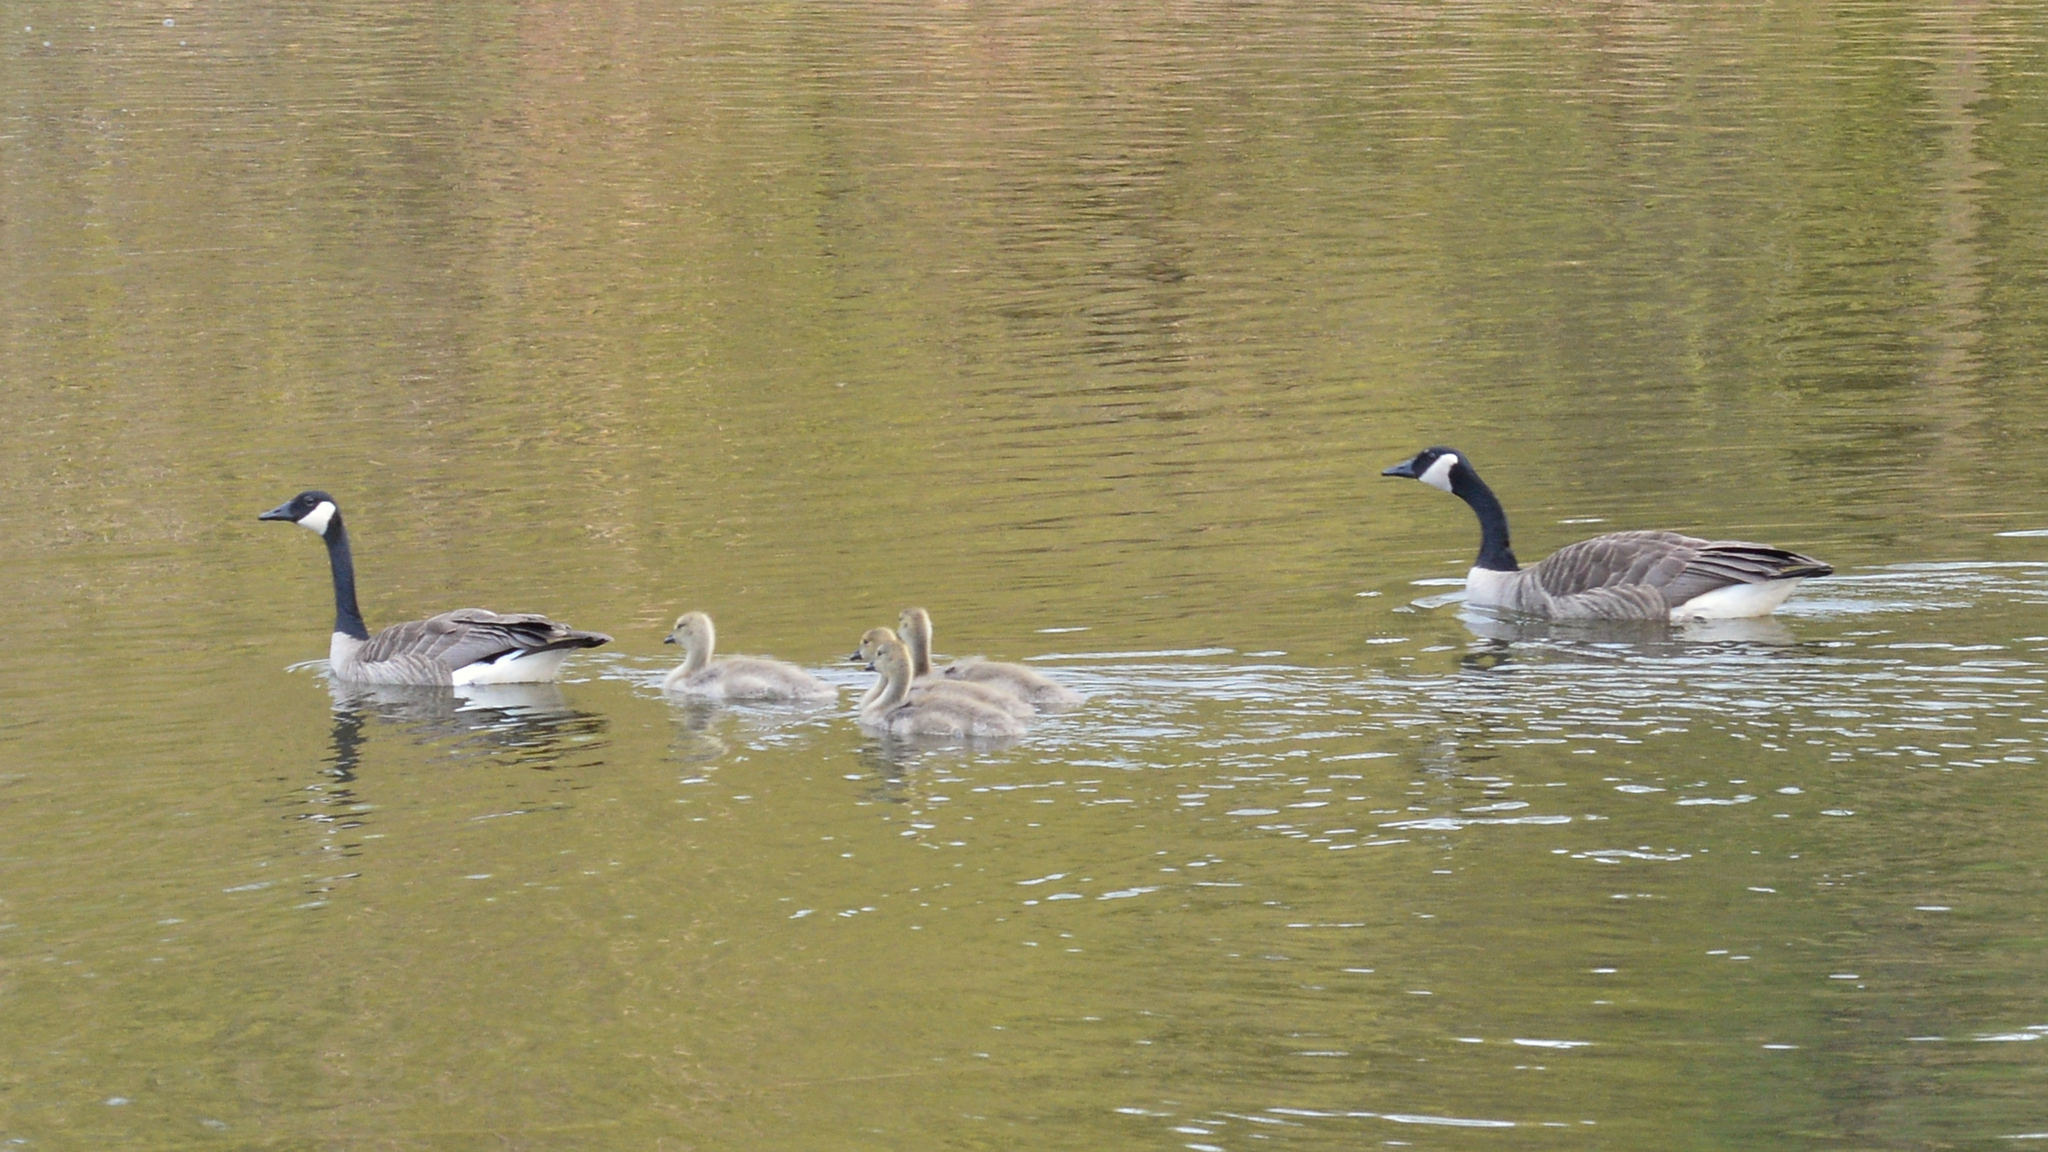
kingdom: Animalia
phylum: Chordata
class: Aves
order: Anseriformes
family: Anatidae
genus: Branta
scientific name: Branta canadensis
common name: Canada goose
